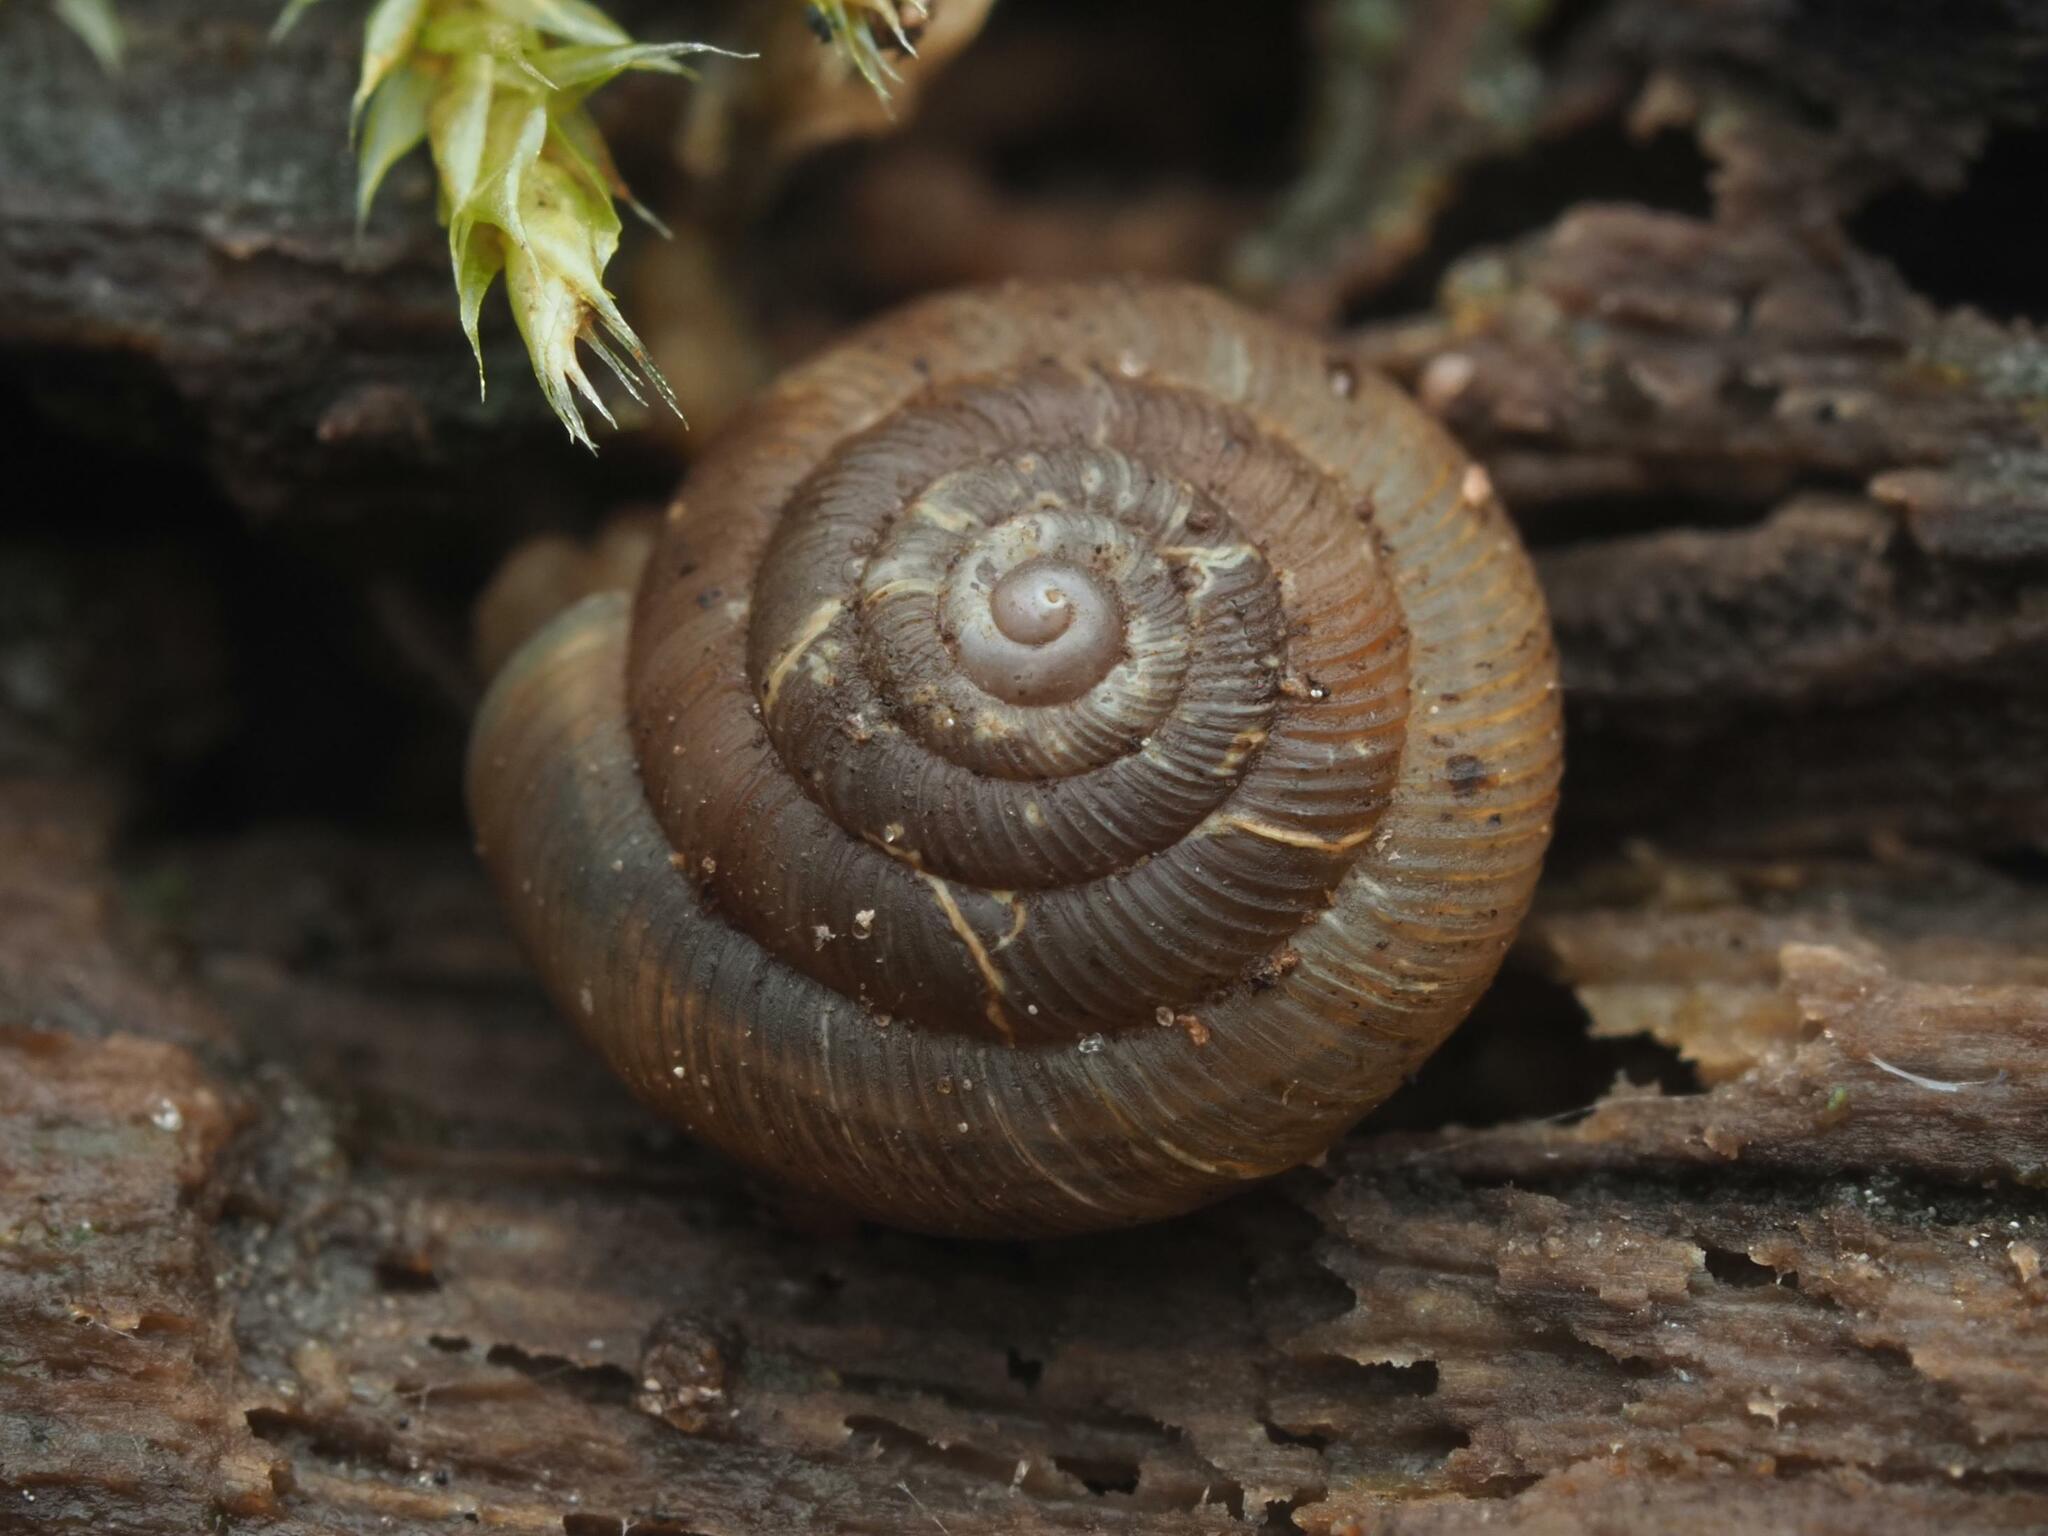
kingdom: Animalia
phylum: Mollusca
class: Gastropoda
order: Stylommatophora
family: Discidae
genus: Discus
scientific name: Discus rotundatus
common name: Rounded snail
